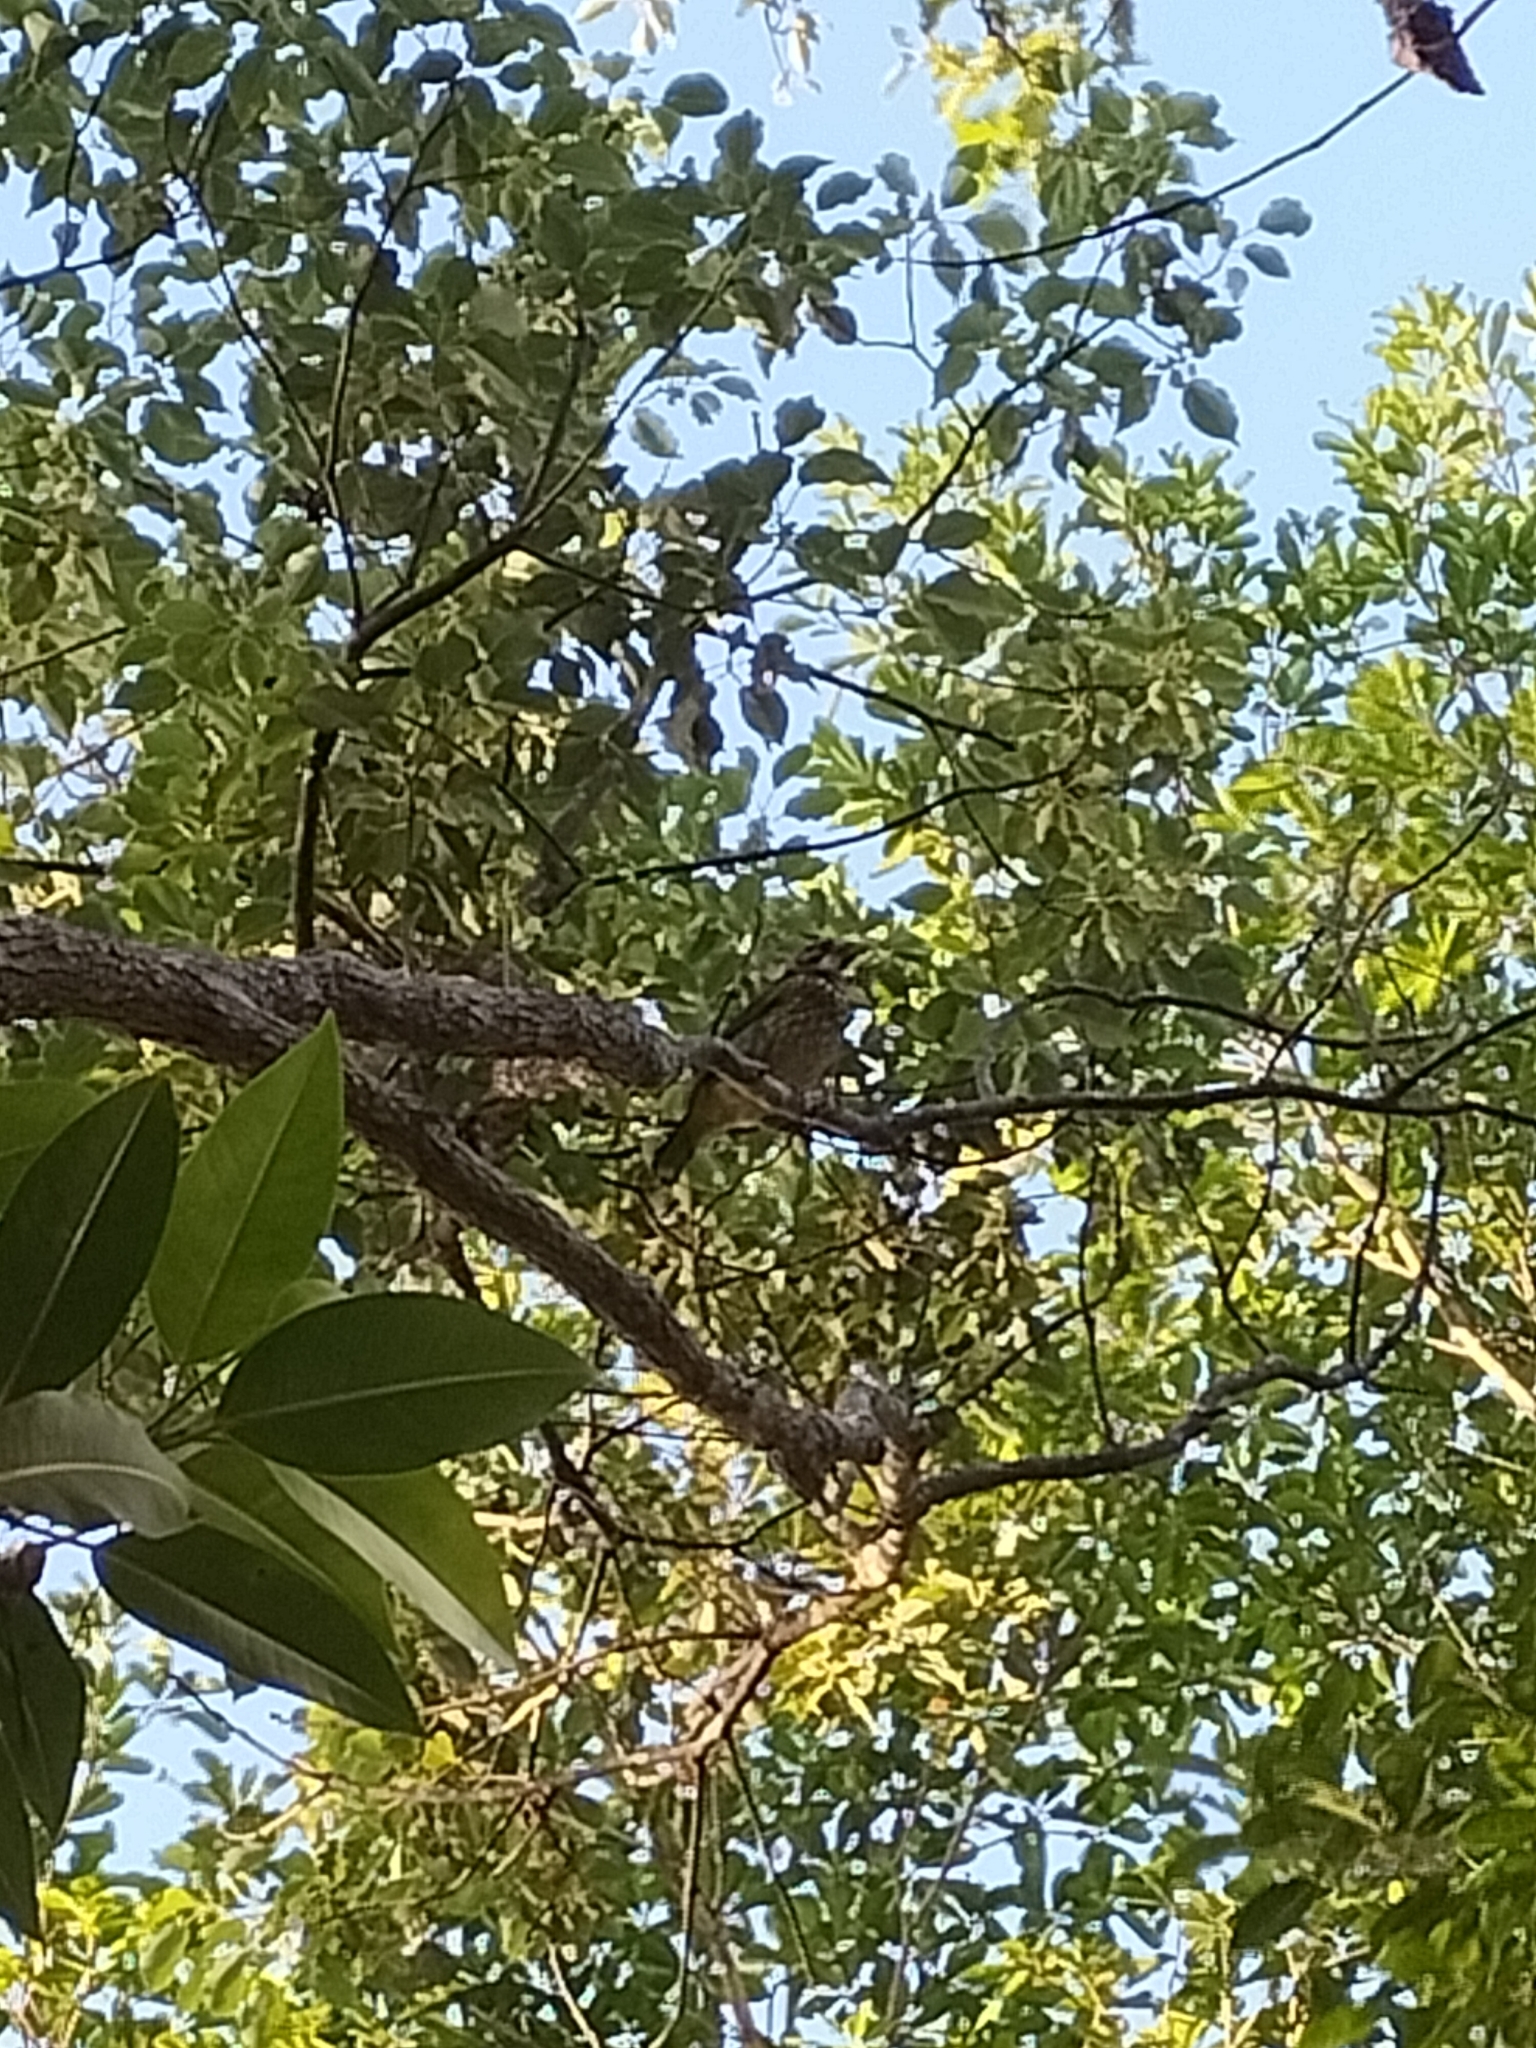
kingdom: Animalia
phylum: Chordata
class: Aves
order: Passeriformes
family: Ptilonorhynchidae
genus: Ailuroedus
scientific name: Ailuroedus maculosus
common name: Spotted catbird
